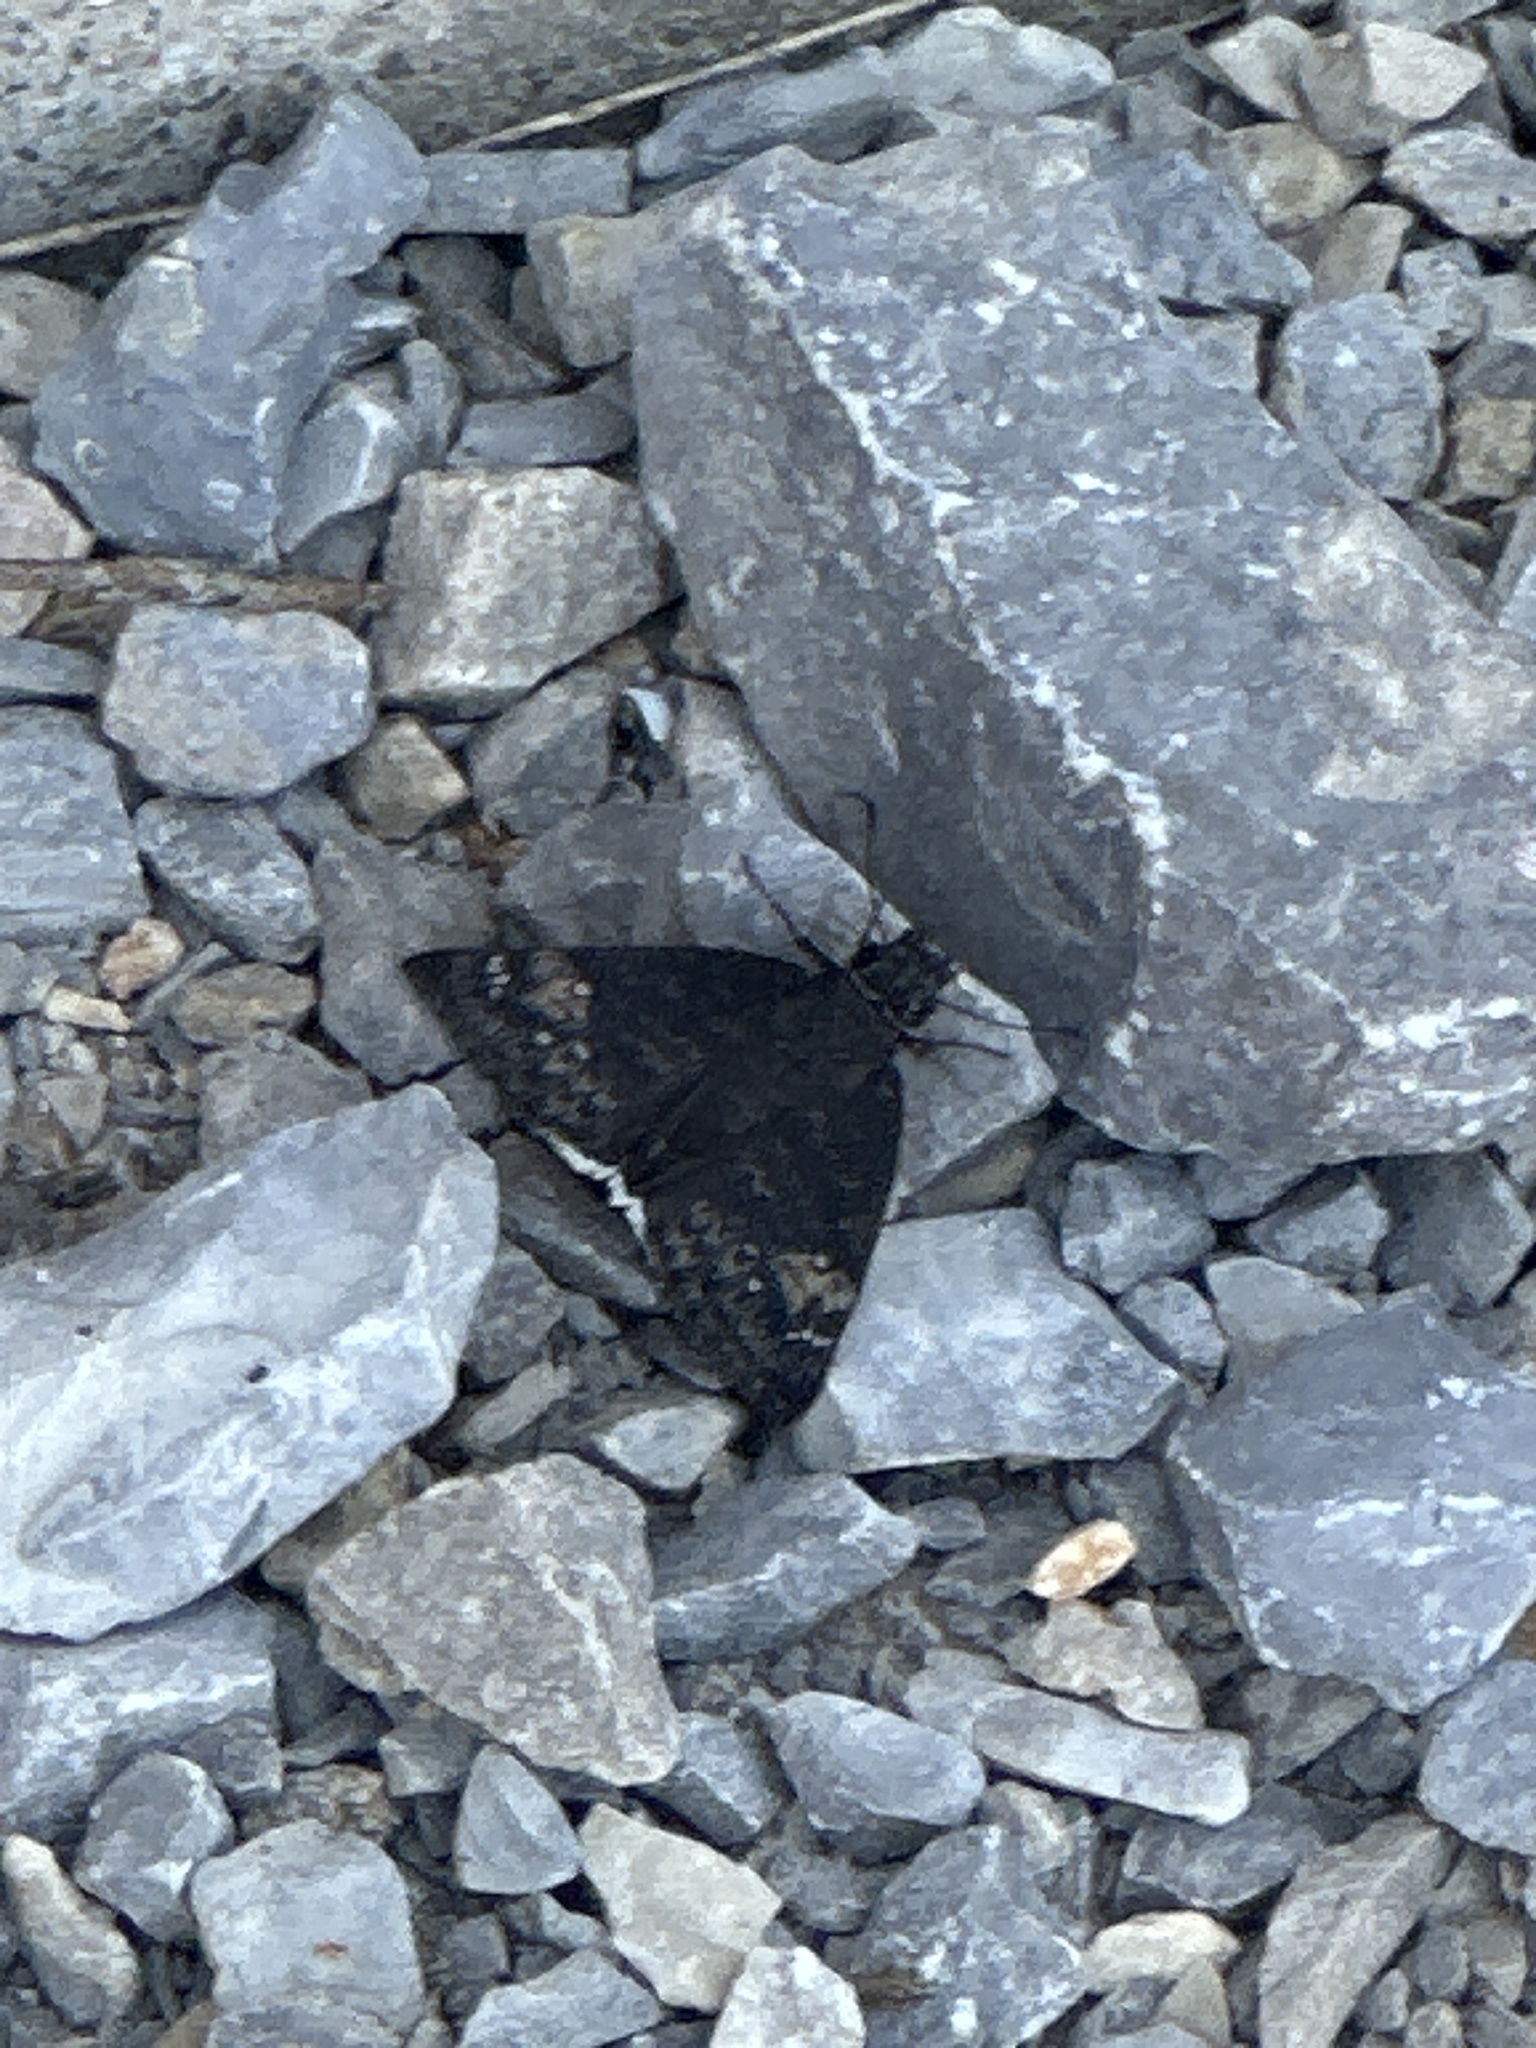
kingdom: Animalia
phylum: Arthropoda
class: Insecta
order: Lepidoptera
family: Hesperiidae
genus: Erynnis
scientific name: Erynnis funeralis
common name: Funereal duskywing
